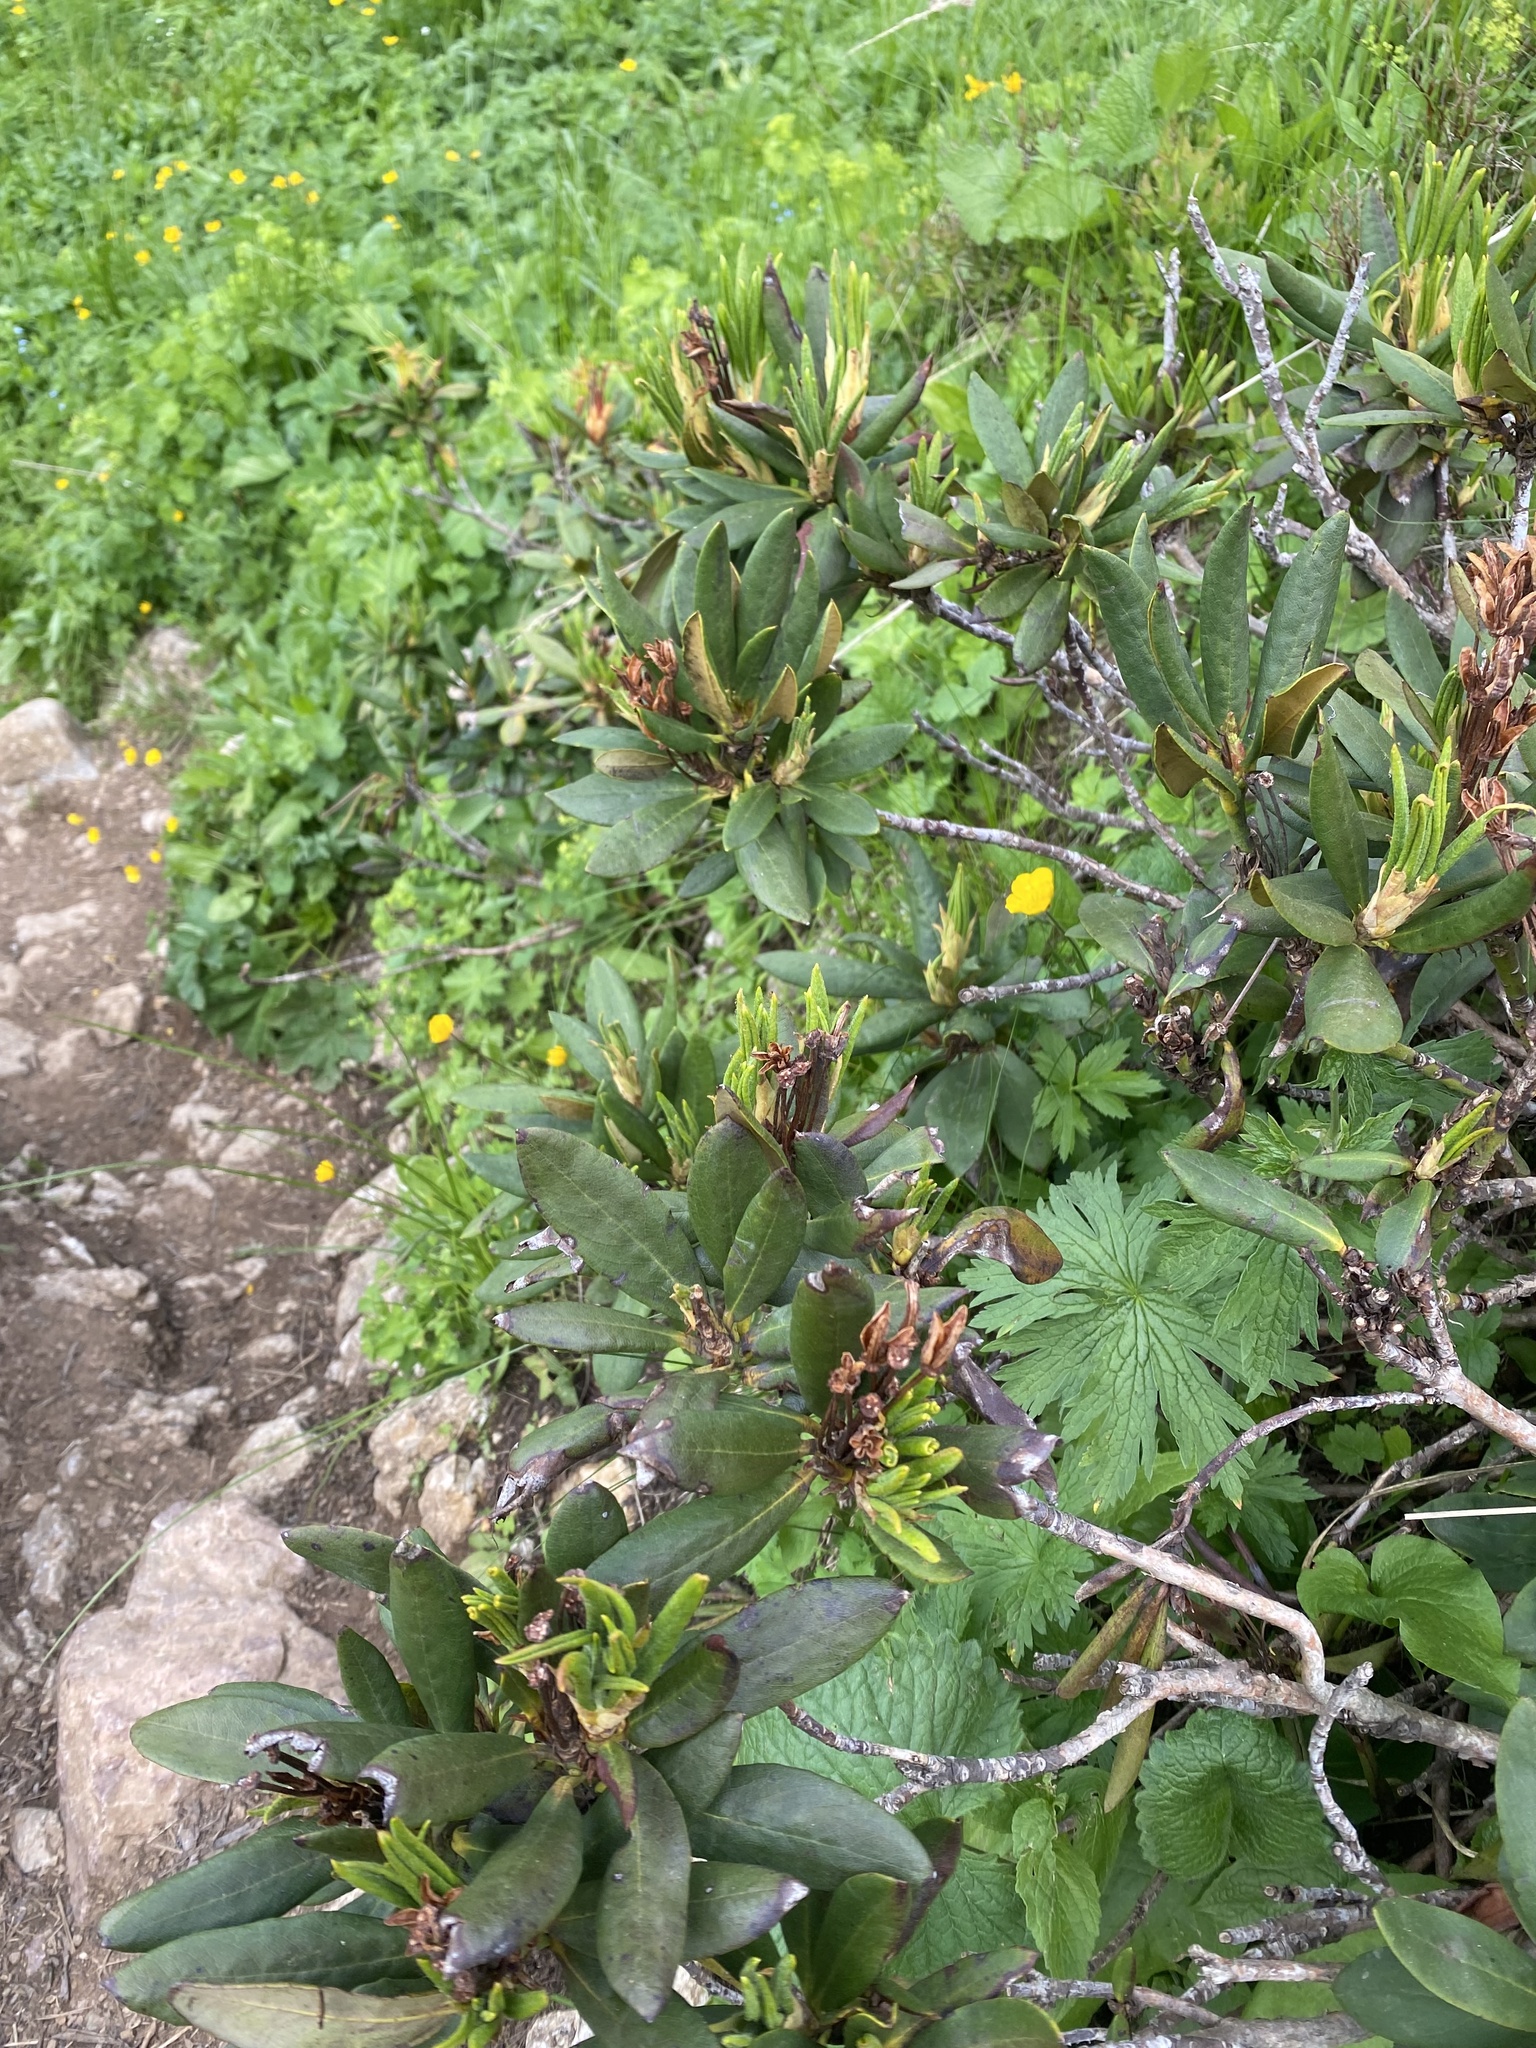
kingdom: Plantae
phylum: Tracheophyta
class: Magnoliopsida
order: Ericales
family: Ericaceae
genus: Rhododendron
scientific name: Rhododendron caucasicum
